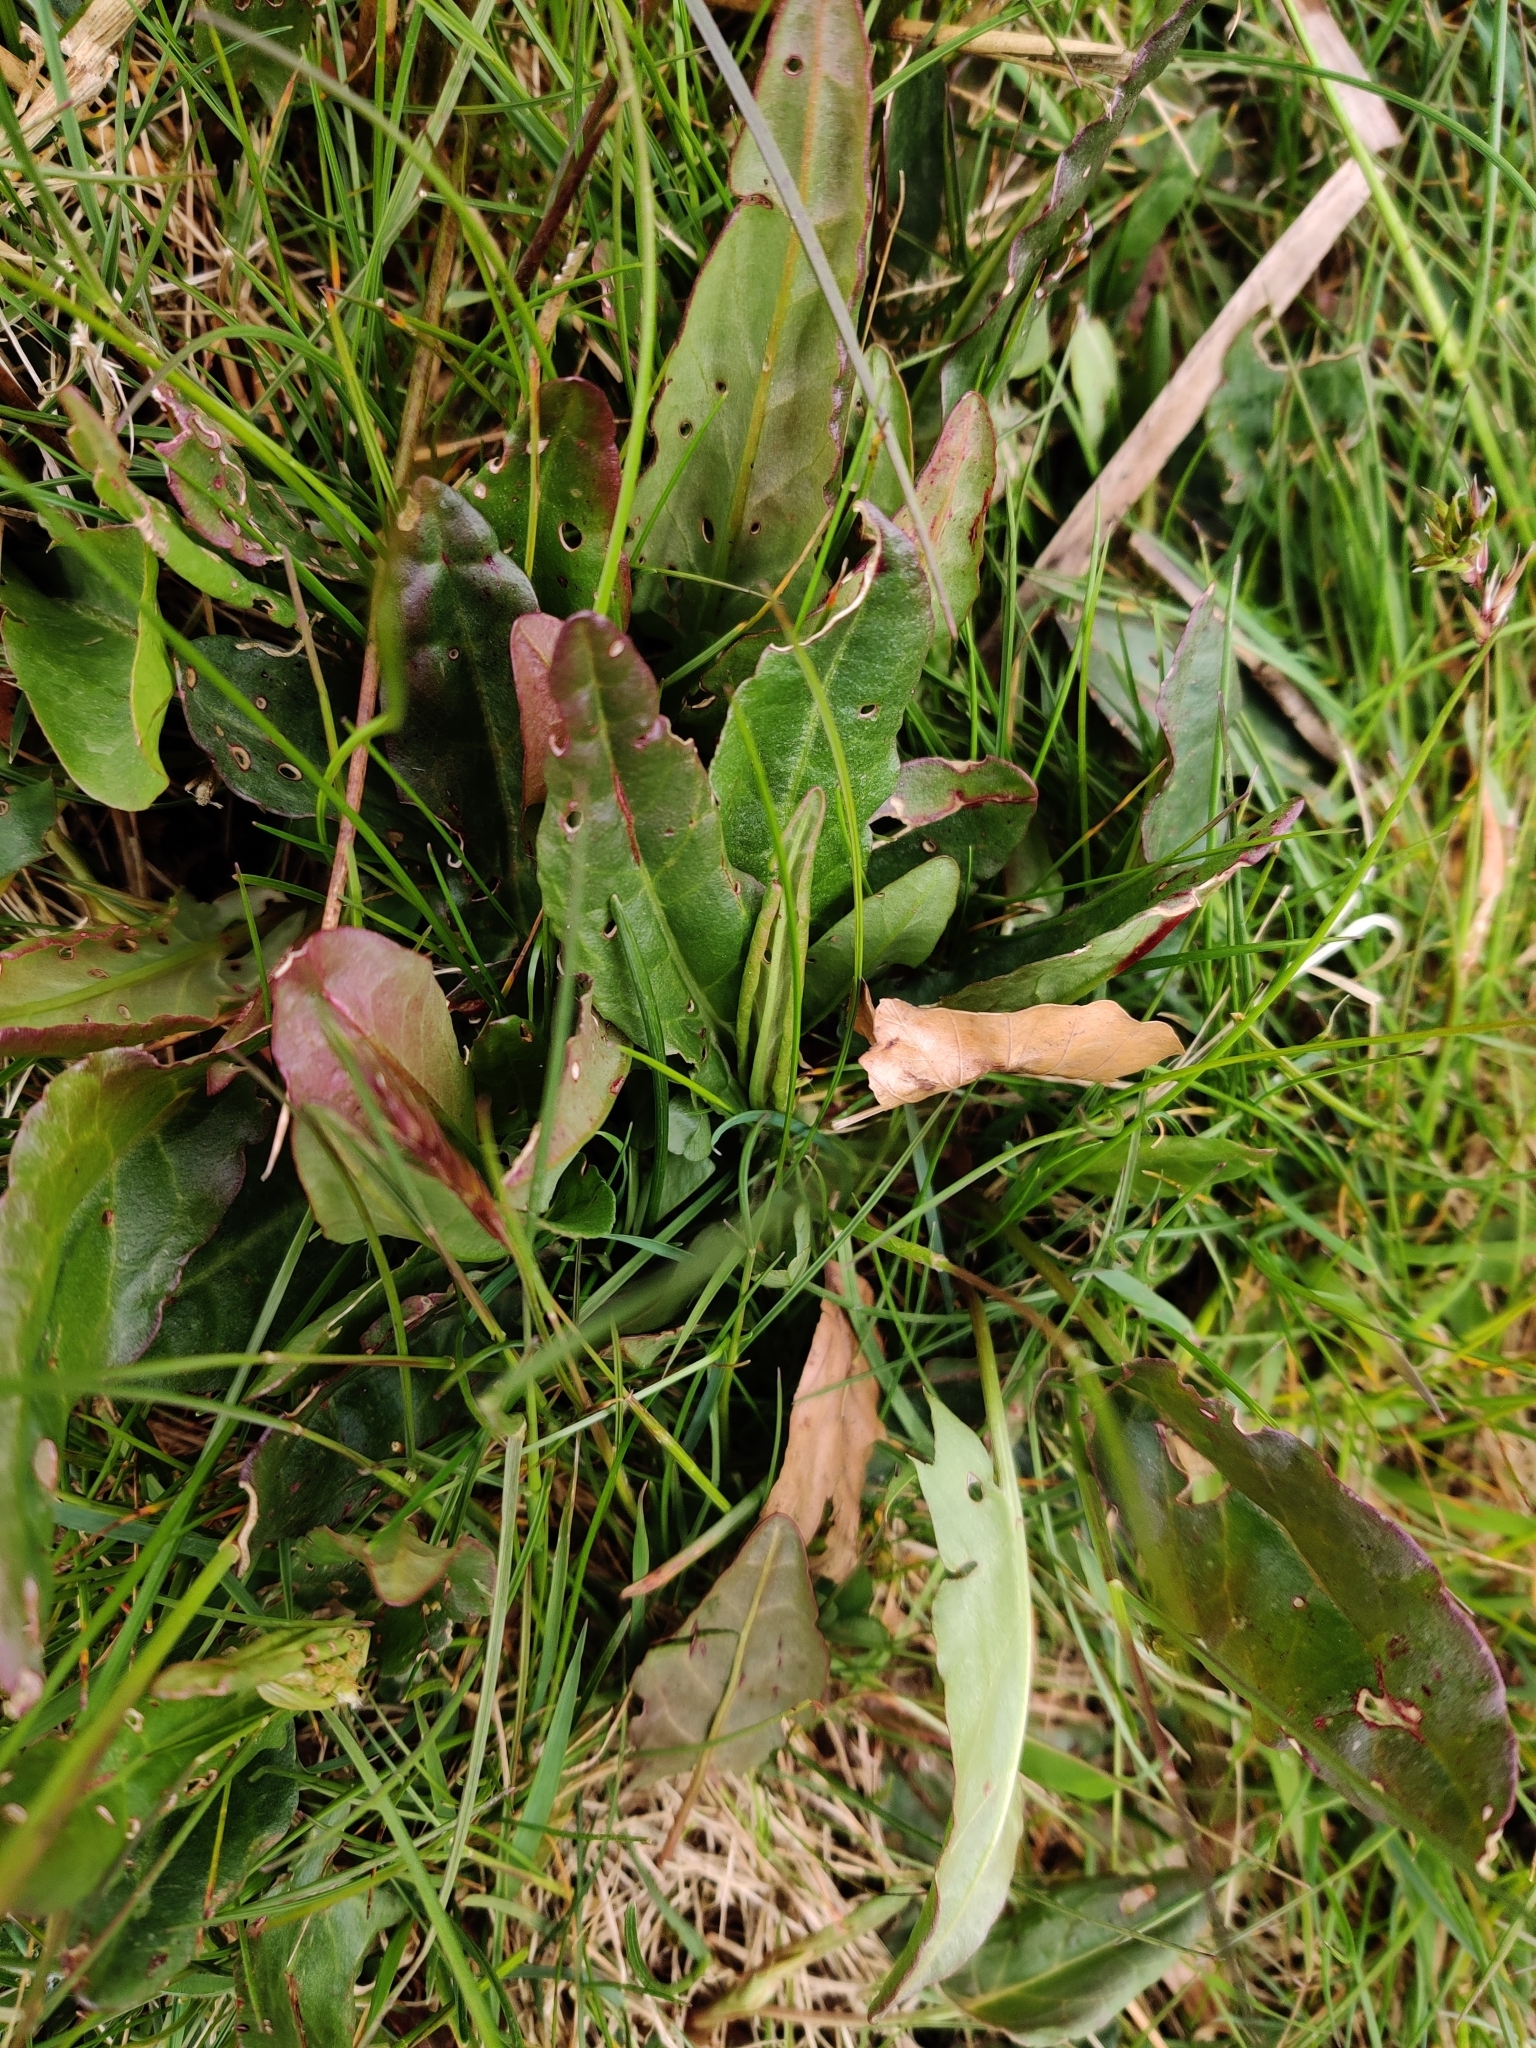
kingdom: Plantae
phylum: Tracheophyta
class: Magnoliopsida
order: Caryophyllales
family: Polygonaceae
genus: Rumex
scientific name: Rumex acetosa
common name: Garden sorrel
